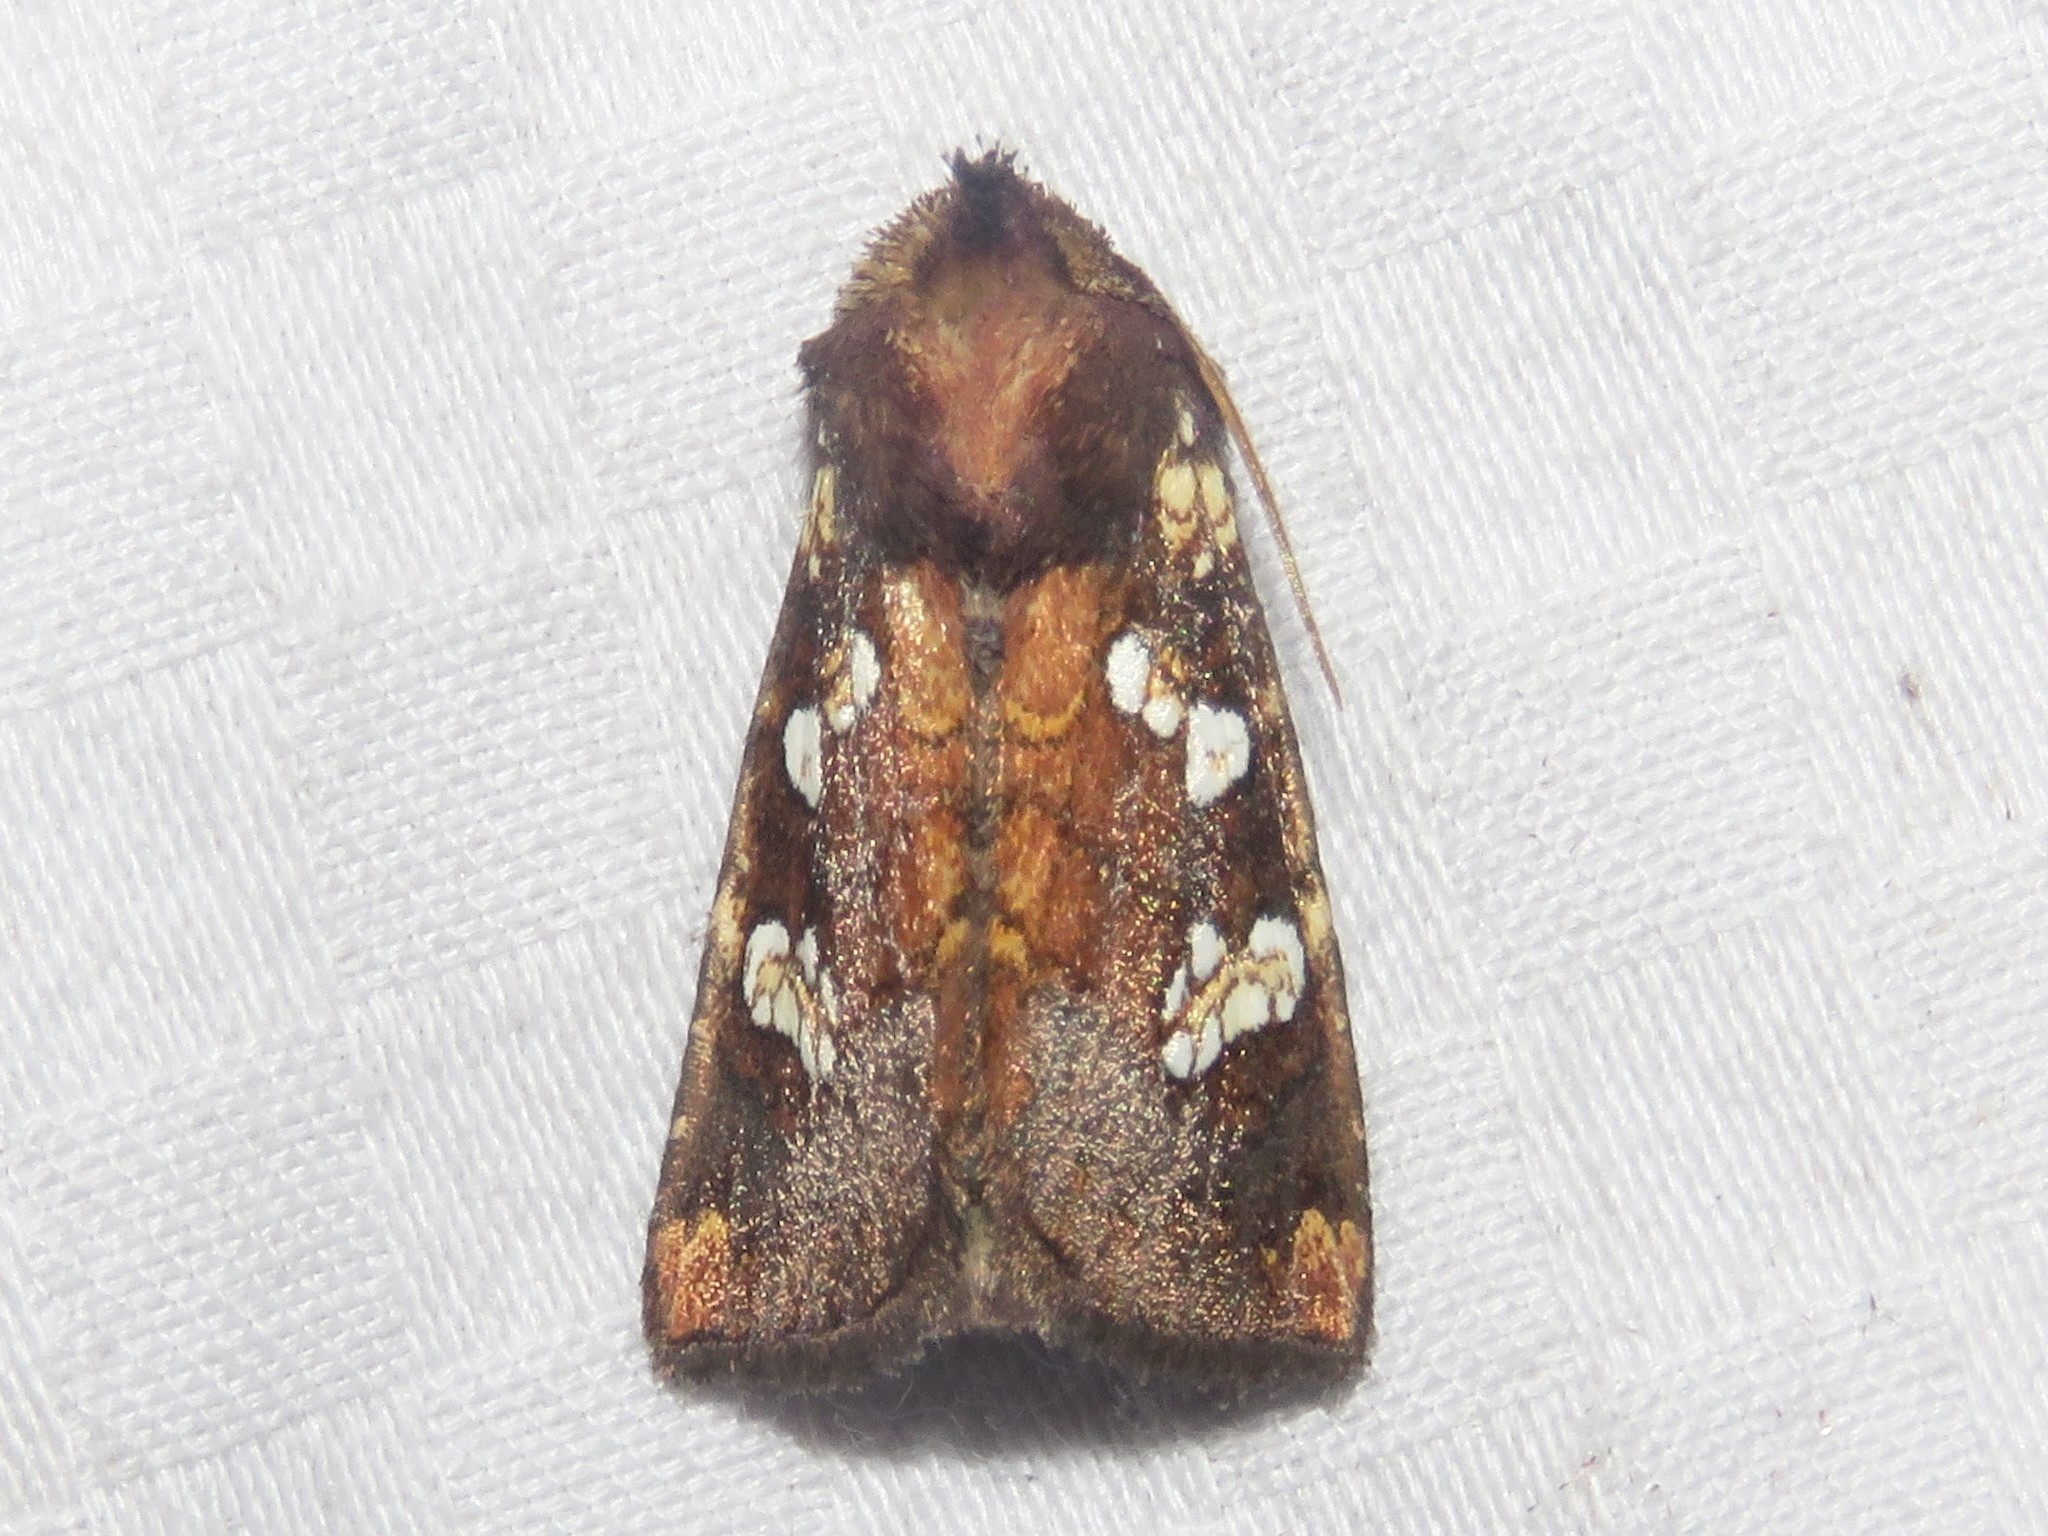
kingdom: Animalia
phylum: Arthropoda
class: Insecta
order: Lepidoptera
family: Noctuidae
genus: Papaipema
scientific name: Papaipema nepheleptena
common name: Turtle head borer moth
